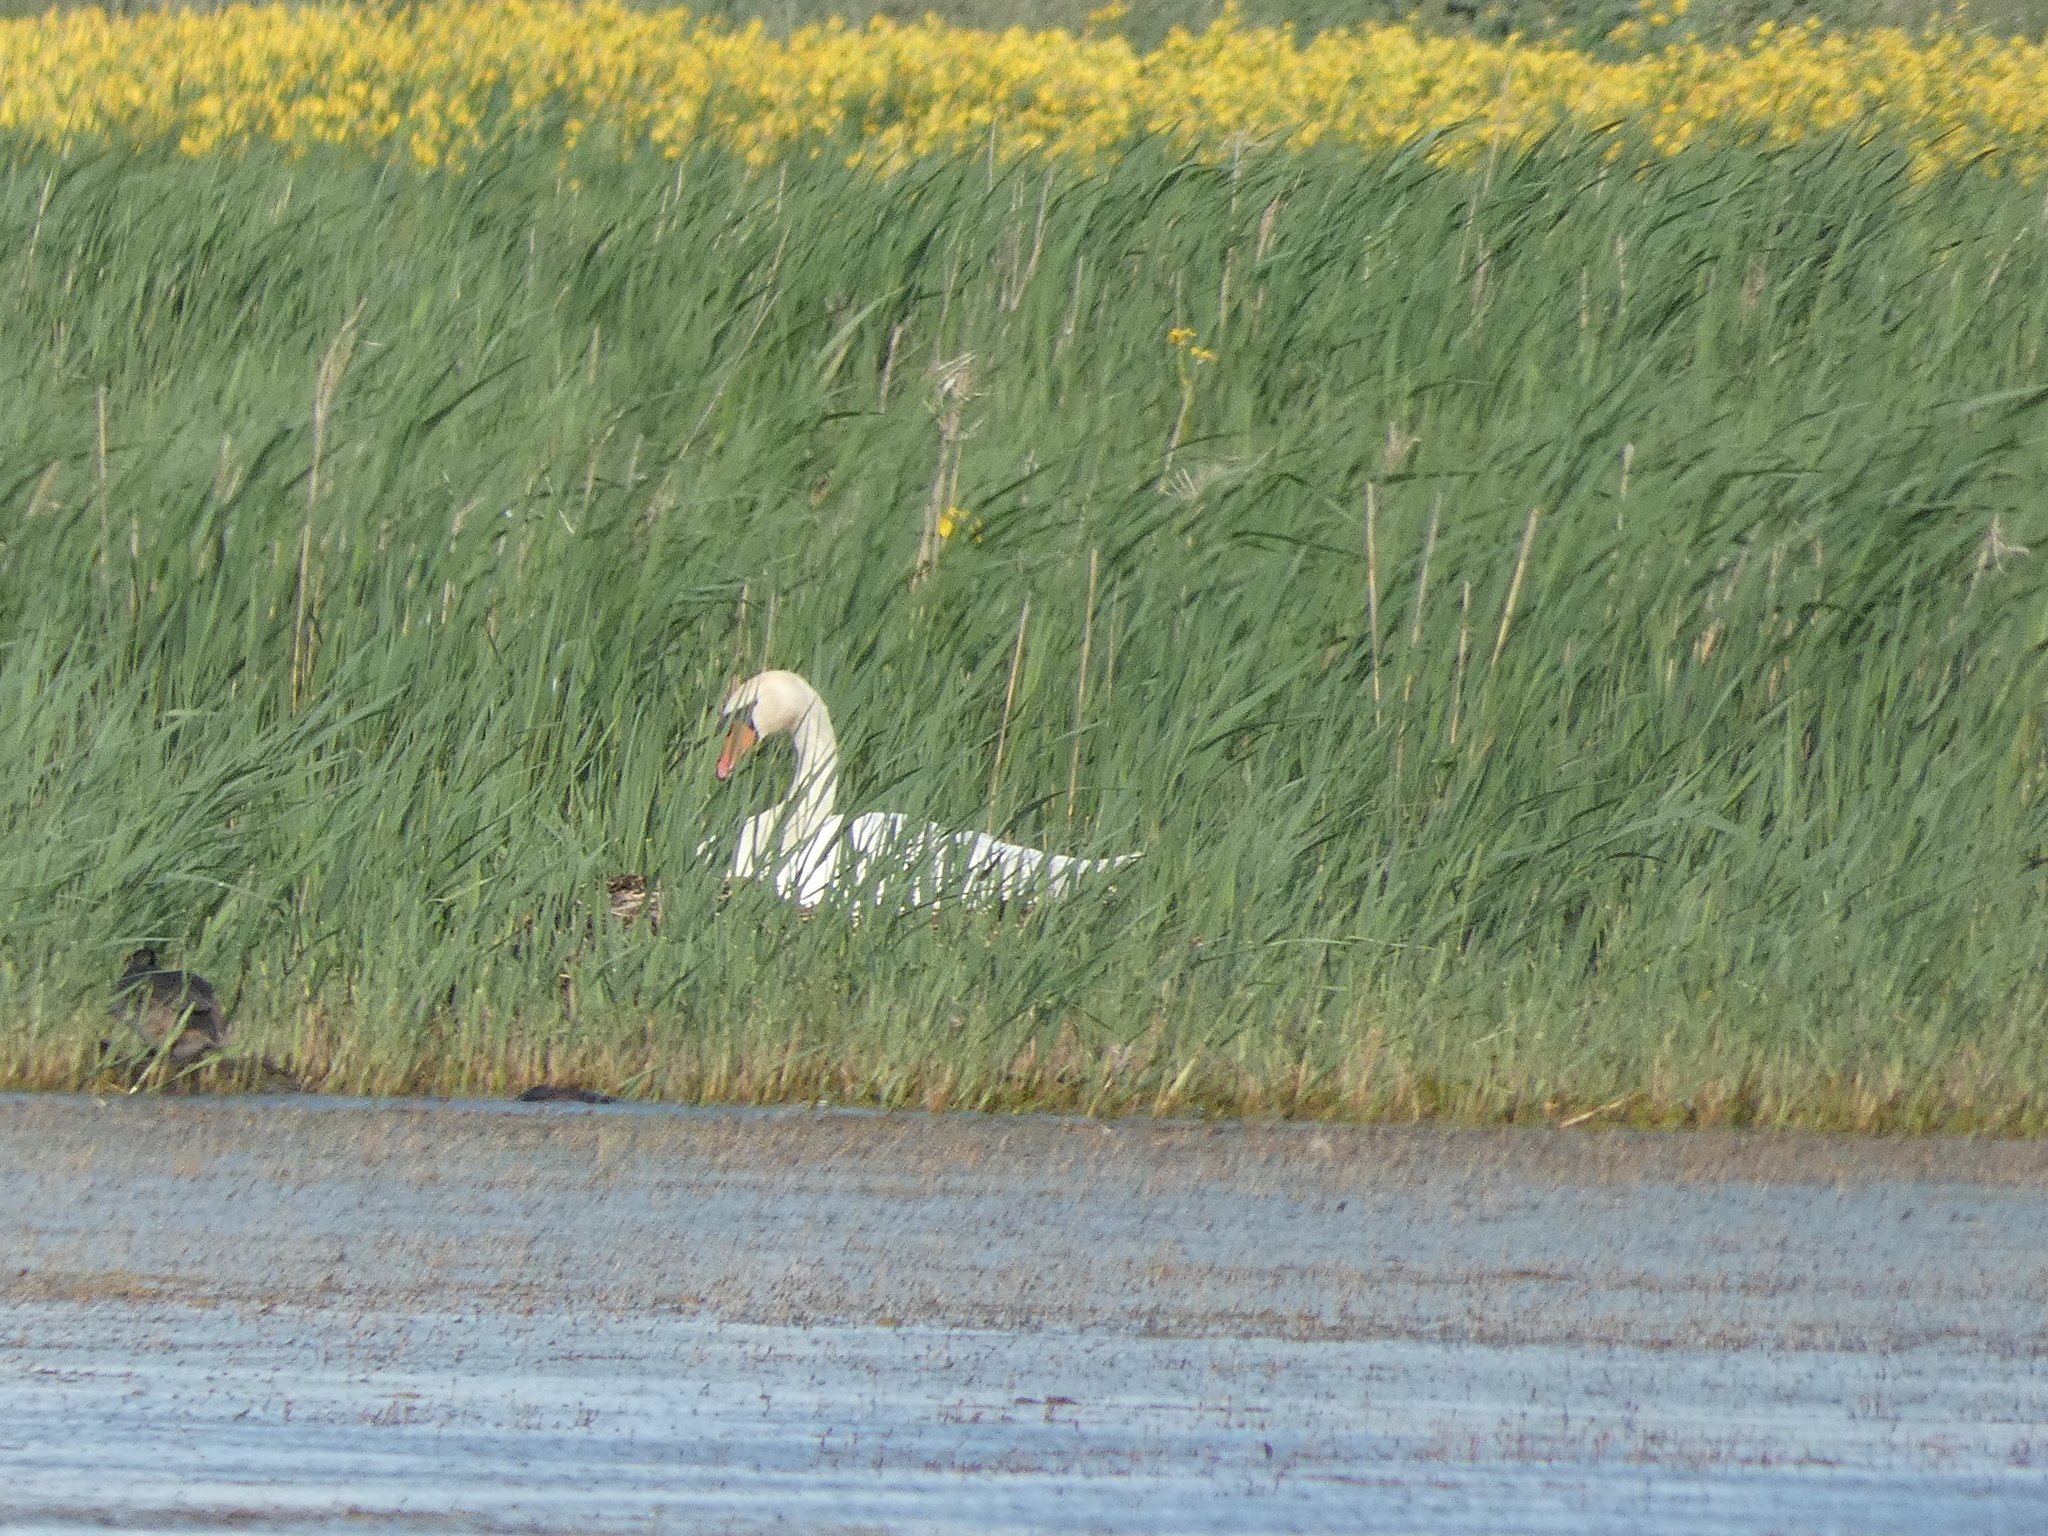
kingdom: Animalia
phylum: Chordata
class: Aves
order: Anseriformes
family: Anatidae
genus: Cygnus
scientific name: Cygnus olor
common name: Mute swan
